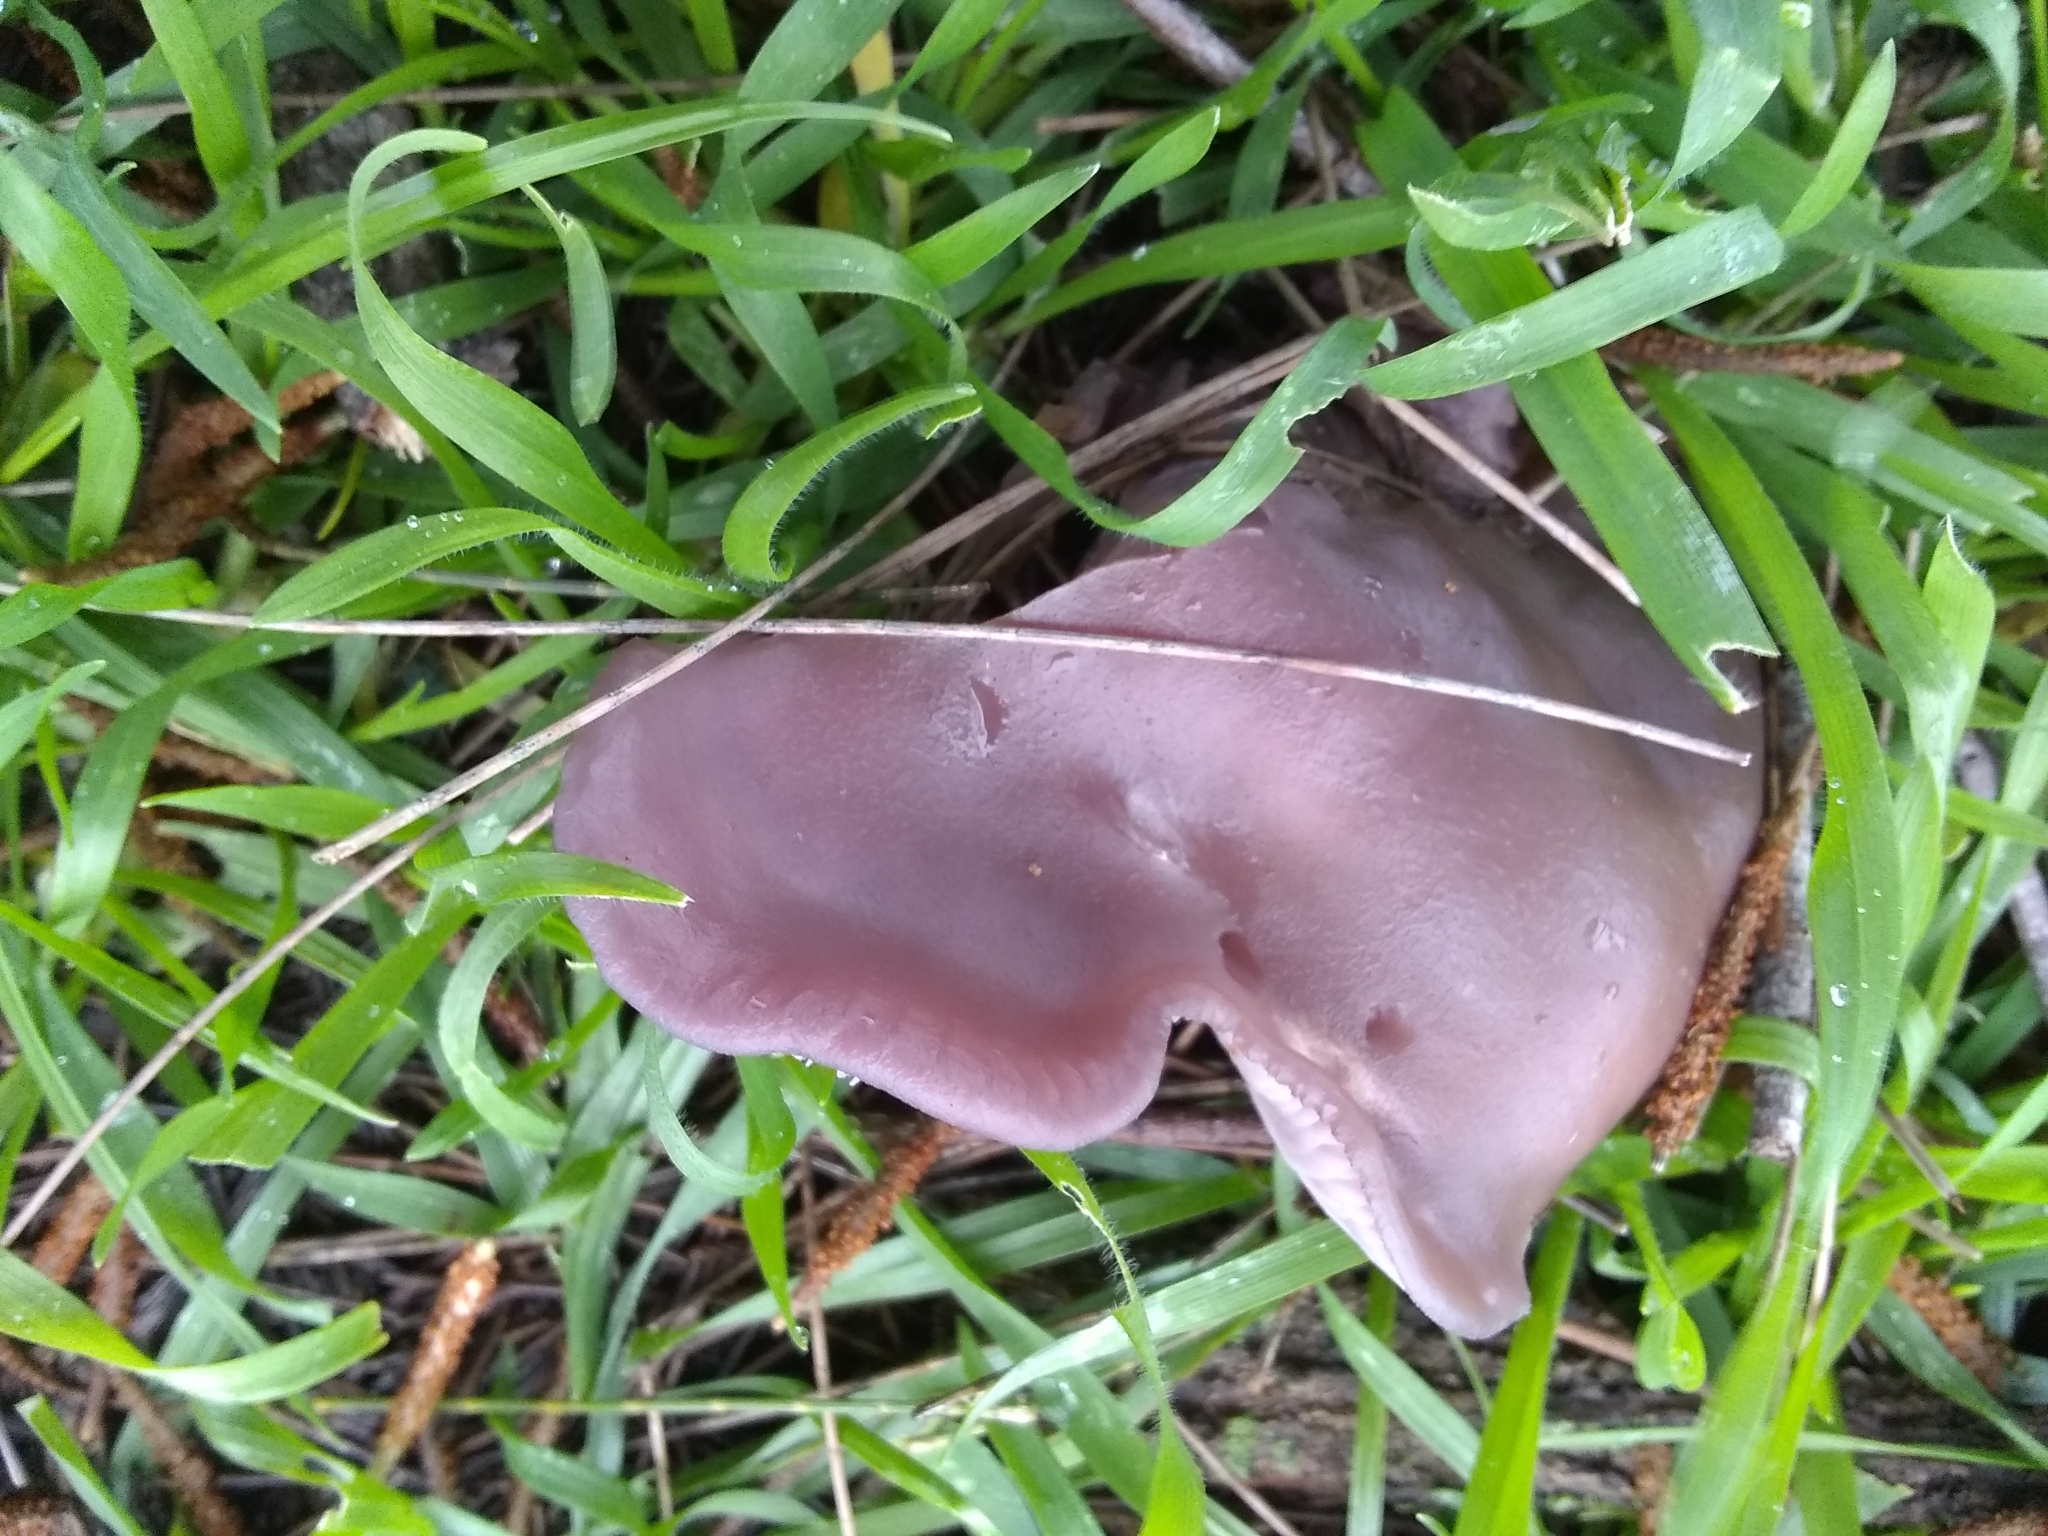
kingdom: Fungi
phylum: Basidiomycota
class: Agaricomycetes
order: Agaricales
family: Tricholomataceae
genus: Collybia
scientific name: Collybia
